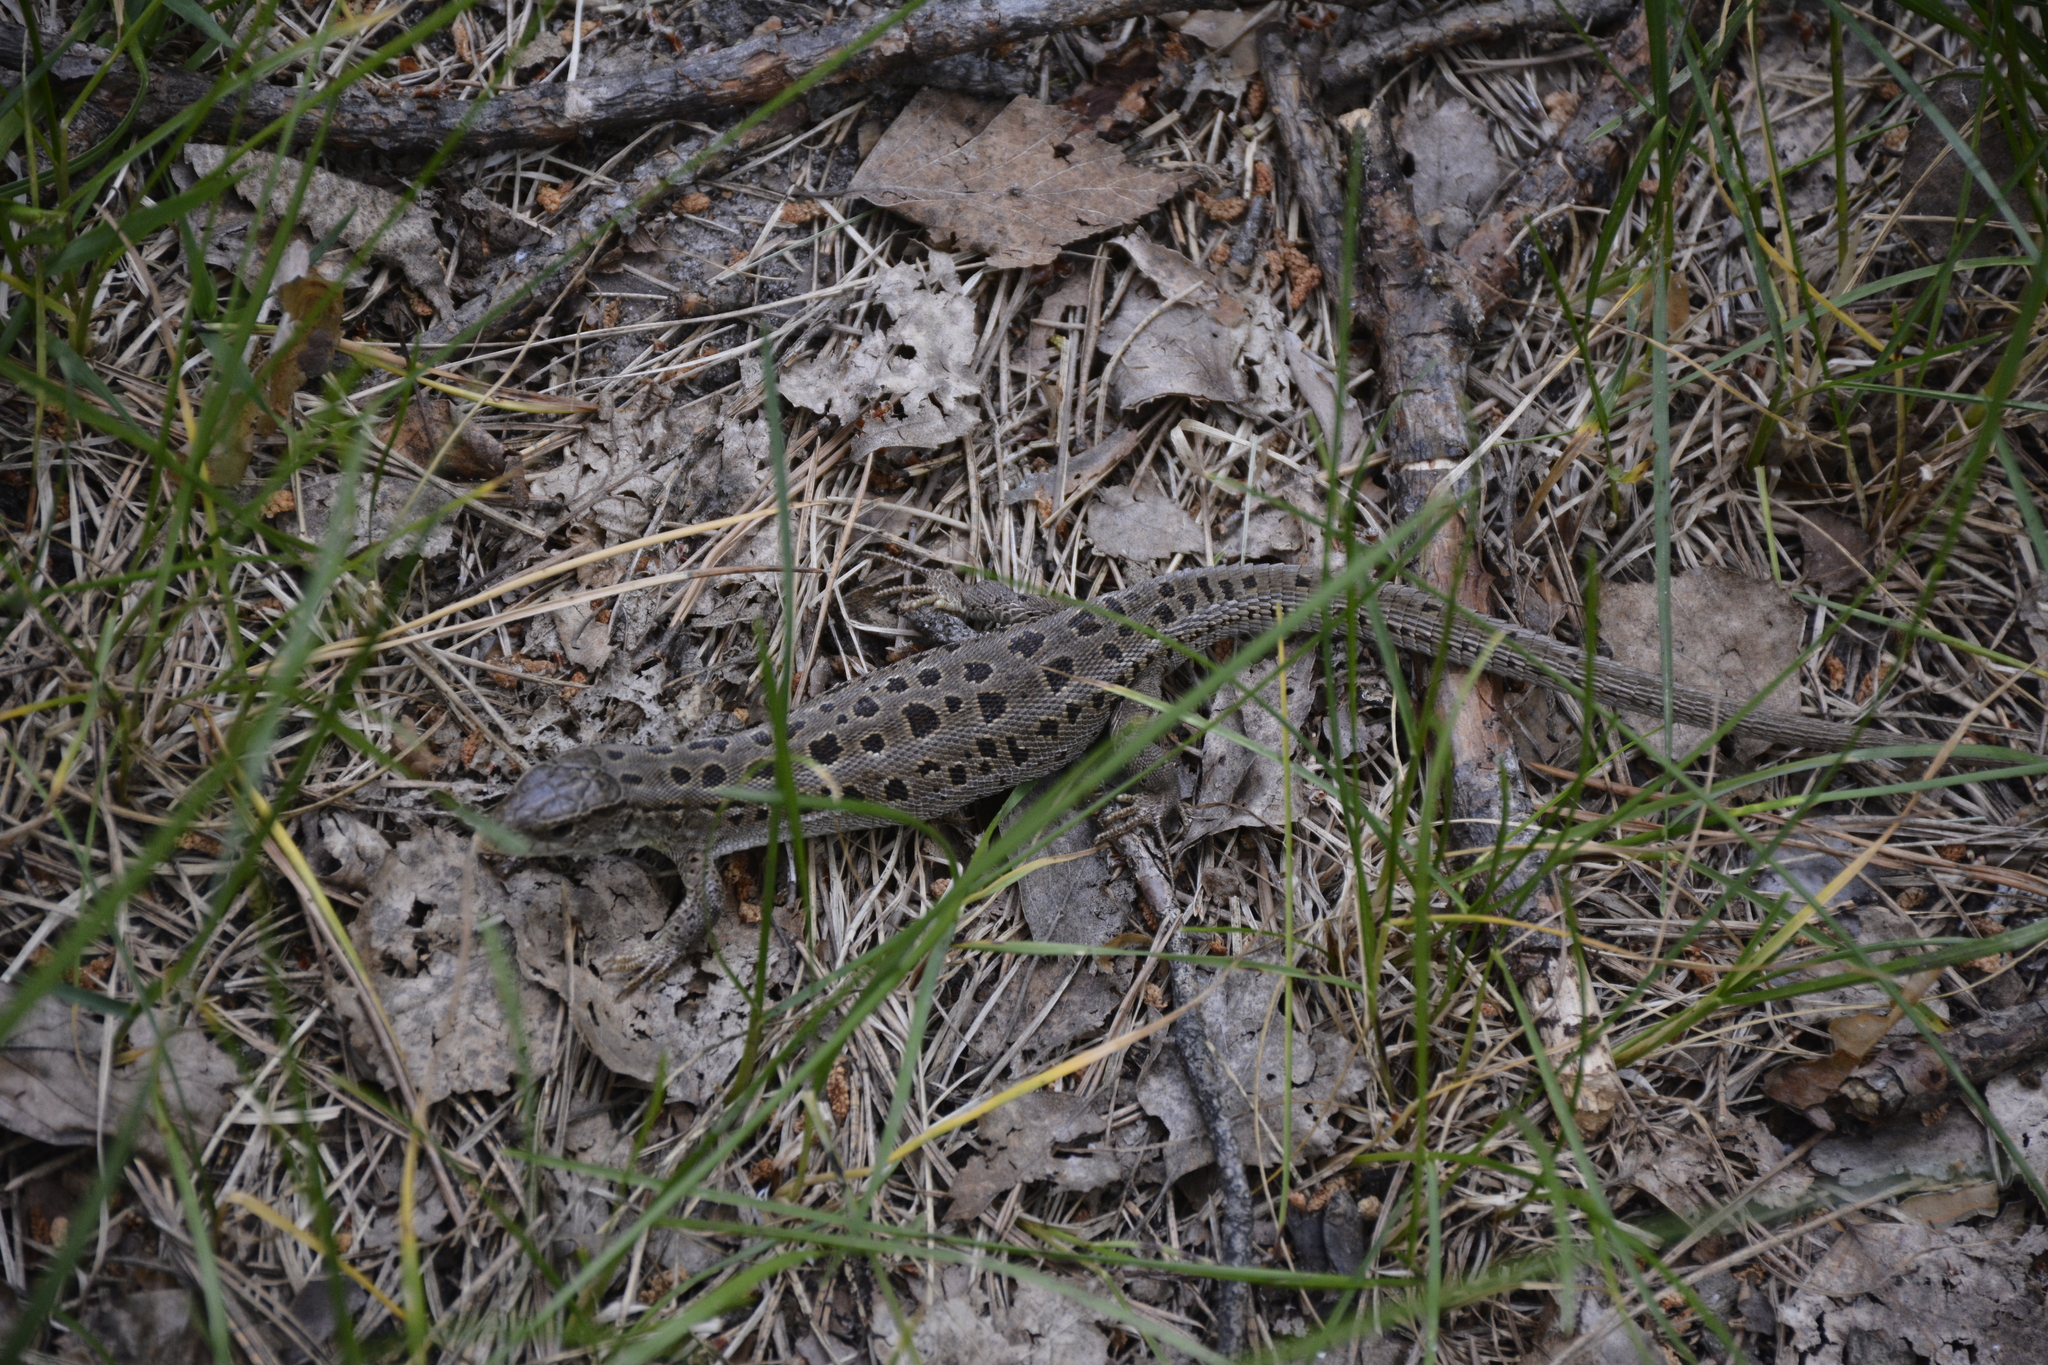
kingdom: Animalia
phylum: Chordata
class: Squamata
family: Lacertidae
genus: Lacerta
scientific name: Lacerta agilis
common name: Sand lizard
